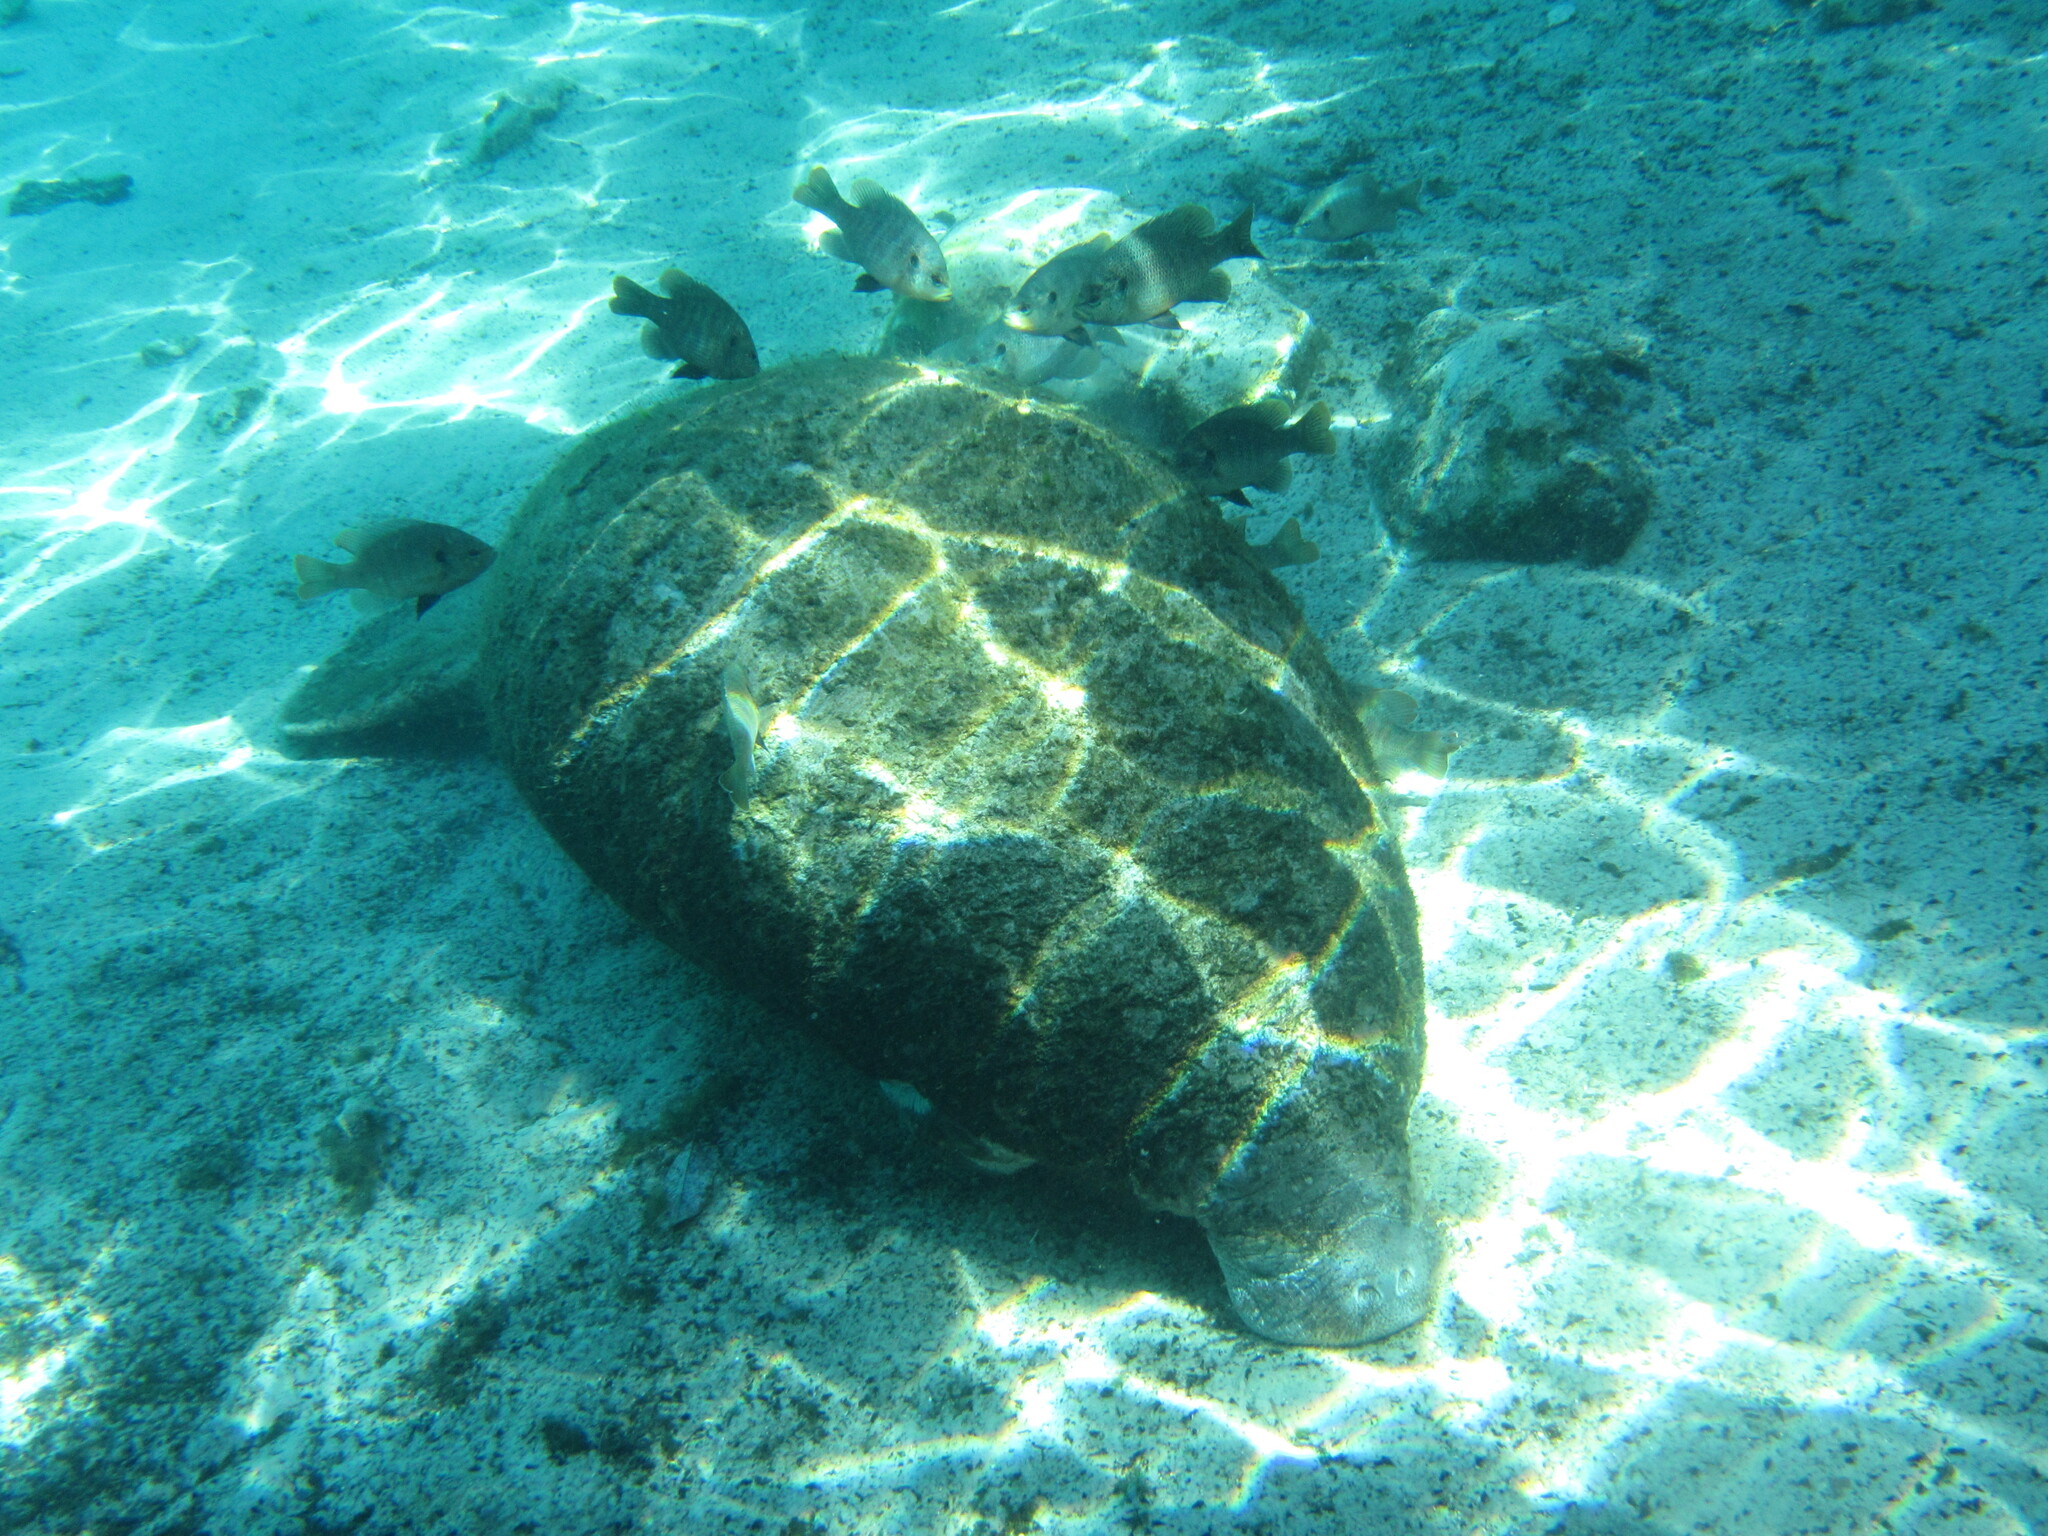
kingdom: Animalia
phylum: Chordata
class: Mammalia
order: Sirenia
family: Trichechidae
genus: Trichechus
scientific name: Trichechus manatus
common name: West indian manatee
